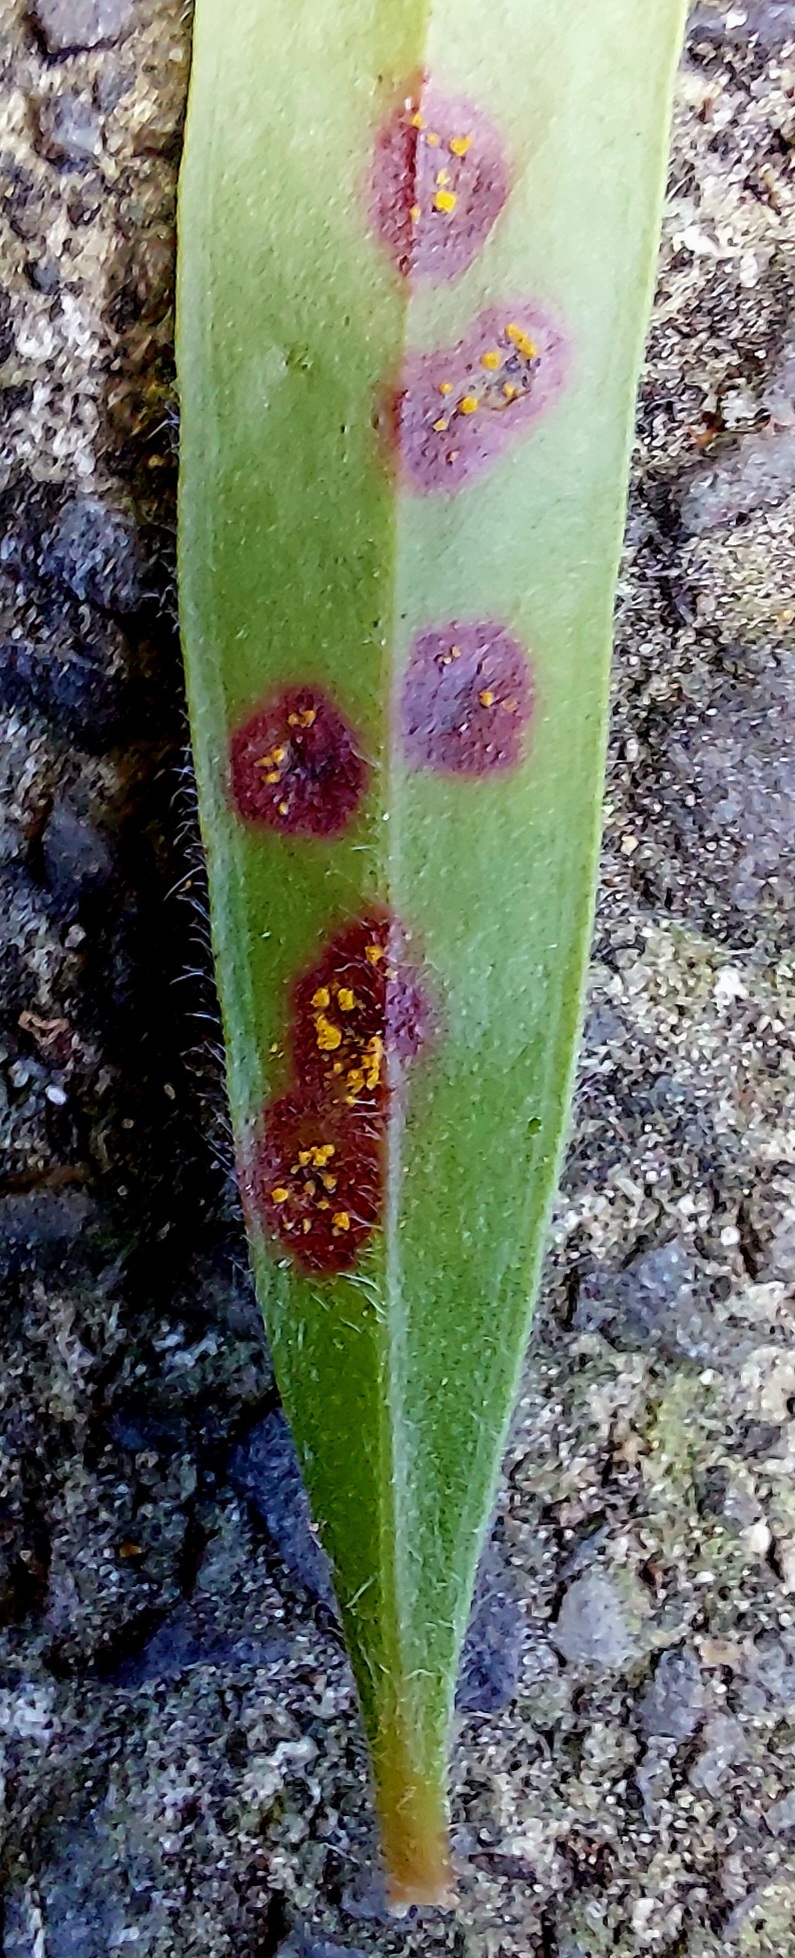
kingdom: Fungi
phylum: Basidiomycota
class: Pucciniomycetes
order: Pucciniales
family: Sphaerophragmiaceae
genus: Austropuccinia
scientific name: Austropuccinia psidii
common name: Myrtle rust
